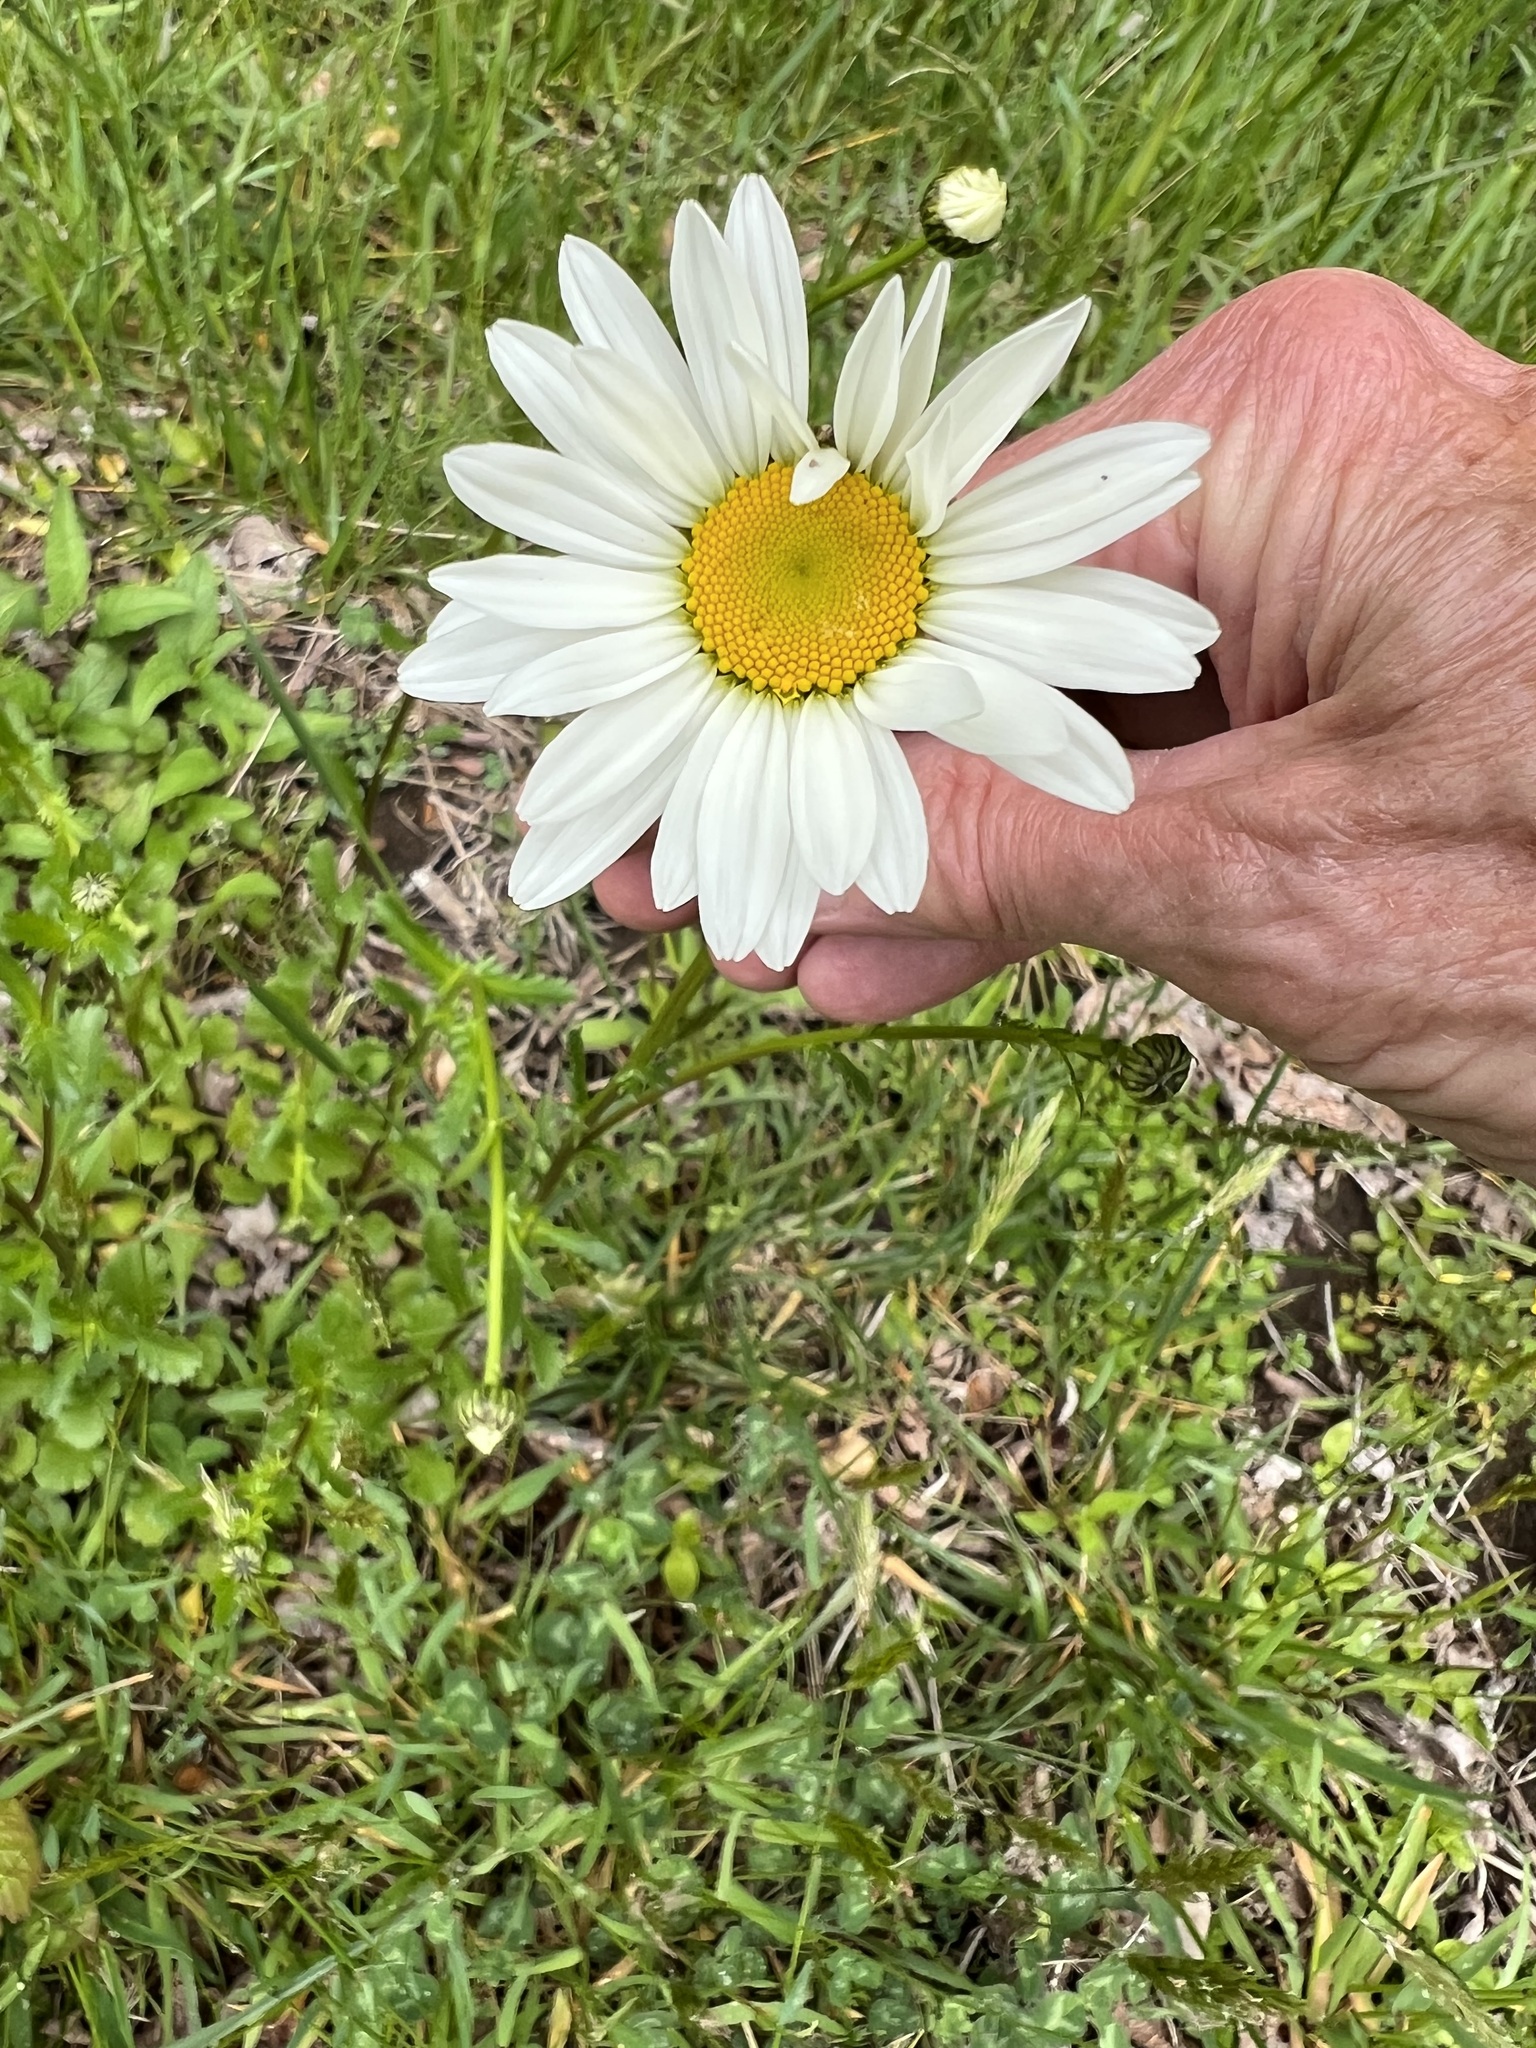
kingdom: Plantae
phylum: Tracheophyta
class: Magnoliopsida
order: Asterales
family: Asteraceae
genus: Leucanthemum
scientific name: Leucanthemum vulgare
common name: Oxeye daisy
